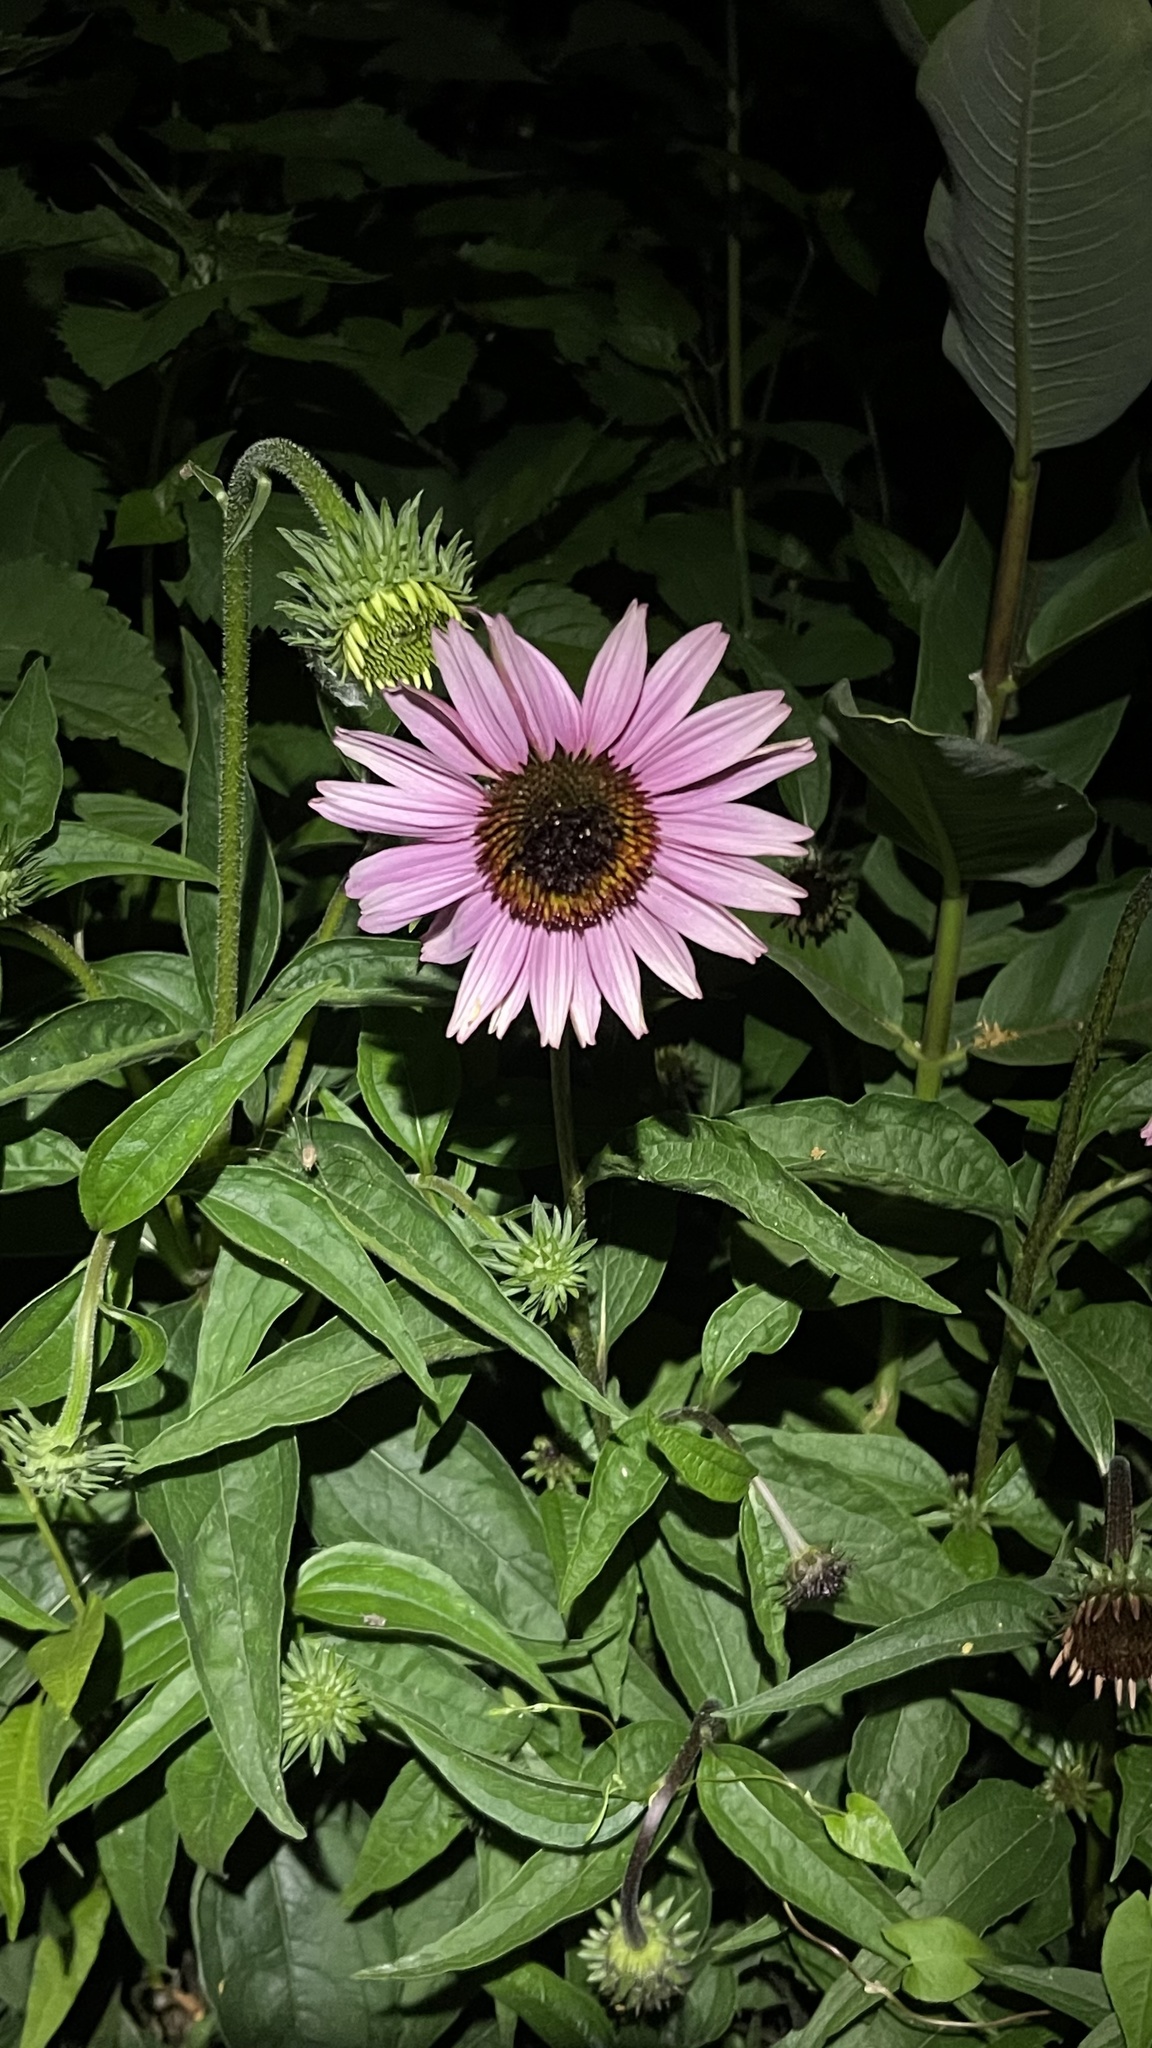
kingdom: Plantae
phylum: Tracheophyta
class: Magnoliopsida
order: Asterales
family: Asteraceae
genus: Echinacea
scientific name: Echinacea purpurea
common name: Broad-leaved purple coneflower
